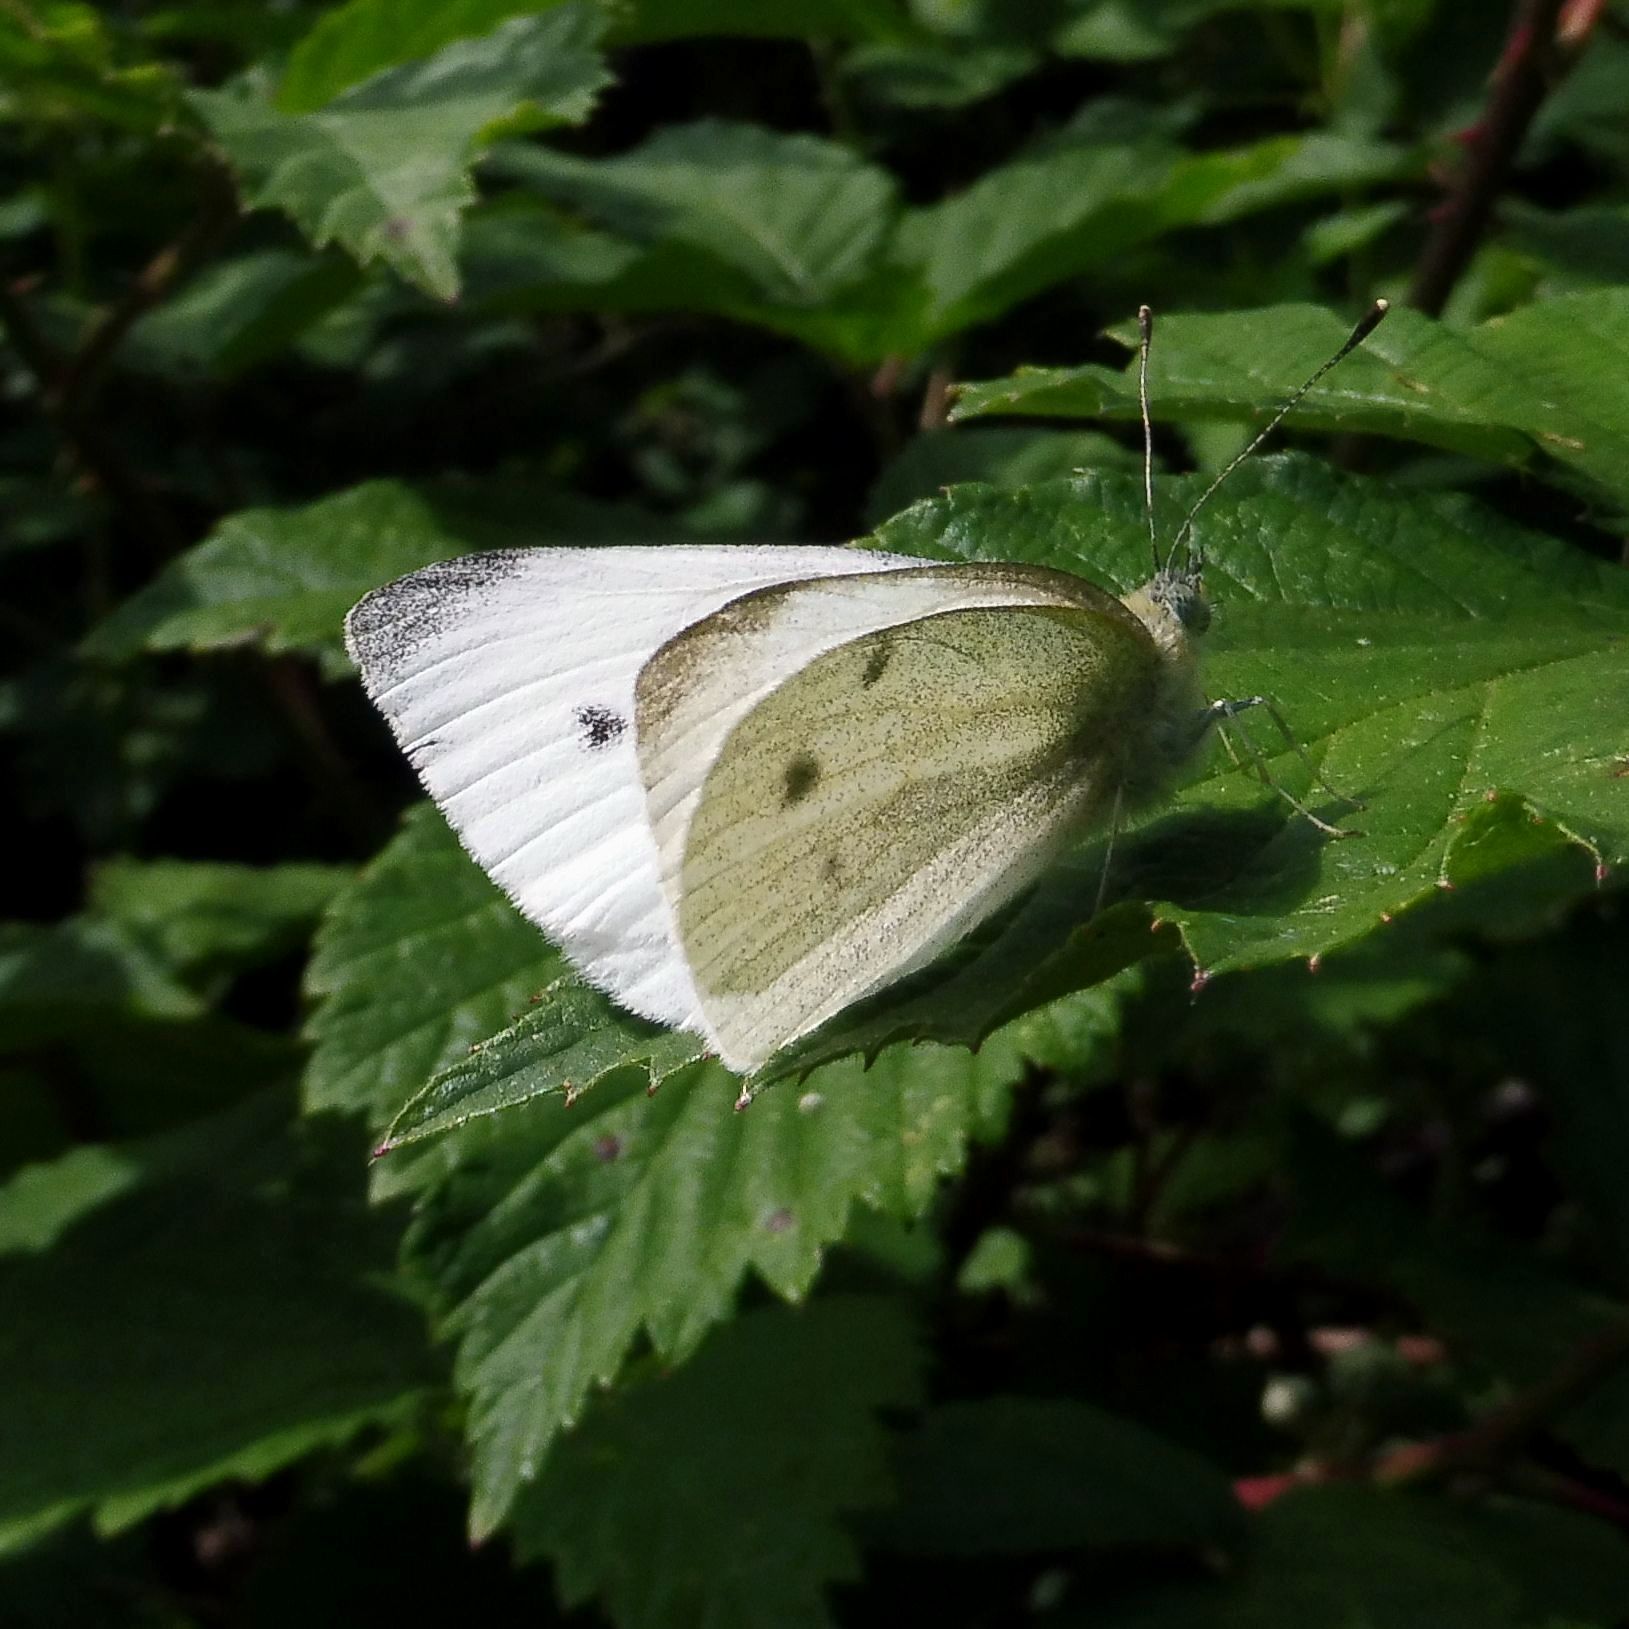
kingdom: Animalia
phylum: Arthropoda
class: Insecta
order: Lepidoptera
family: Pieridae
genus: Pieris
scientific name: Pieris rapae
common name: Small white
